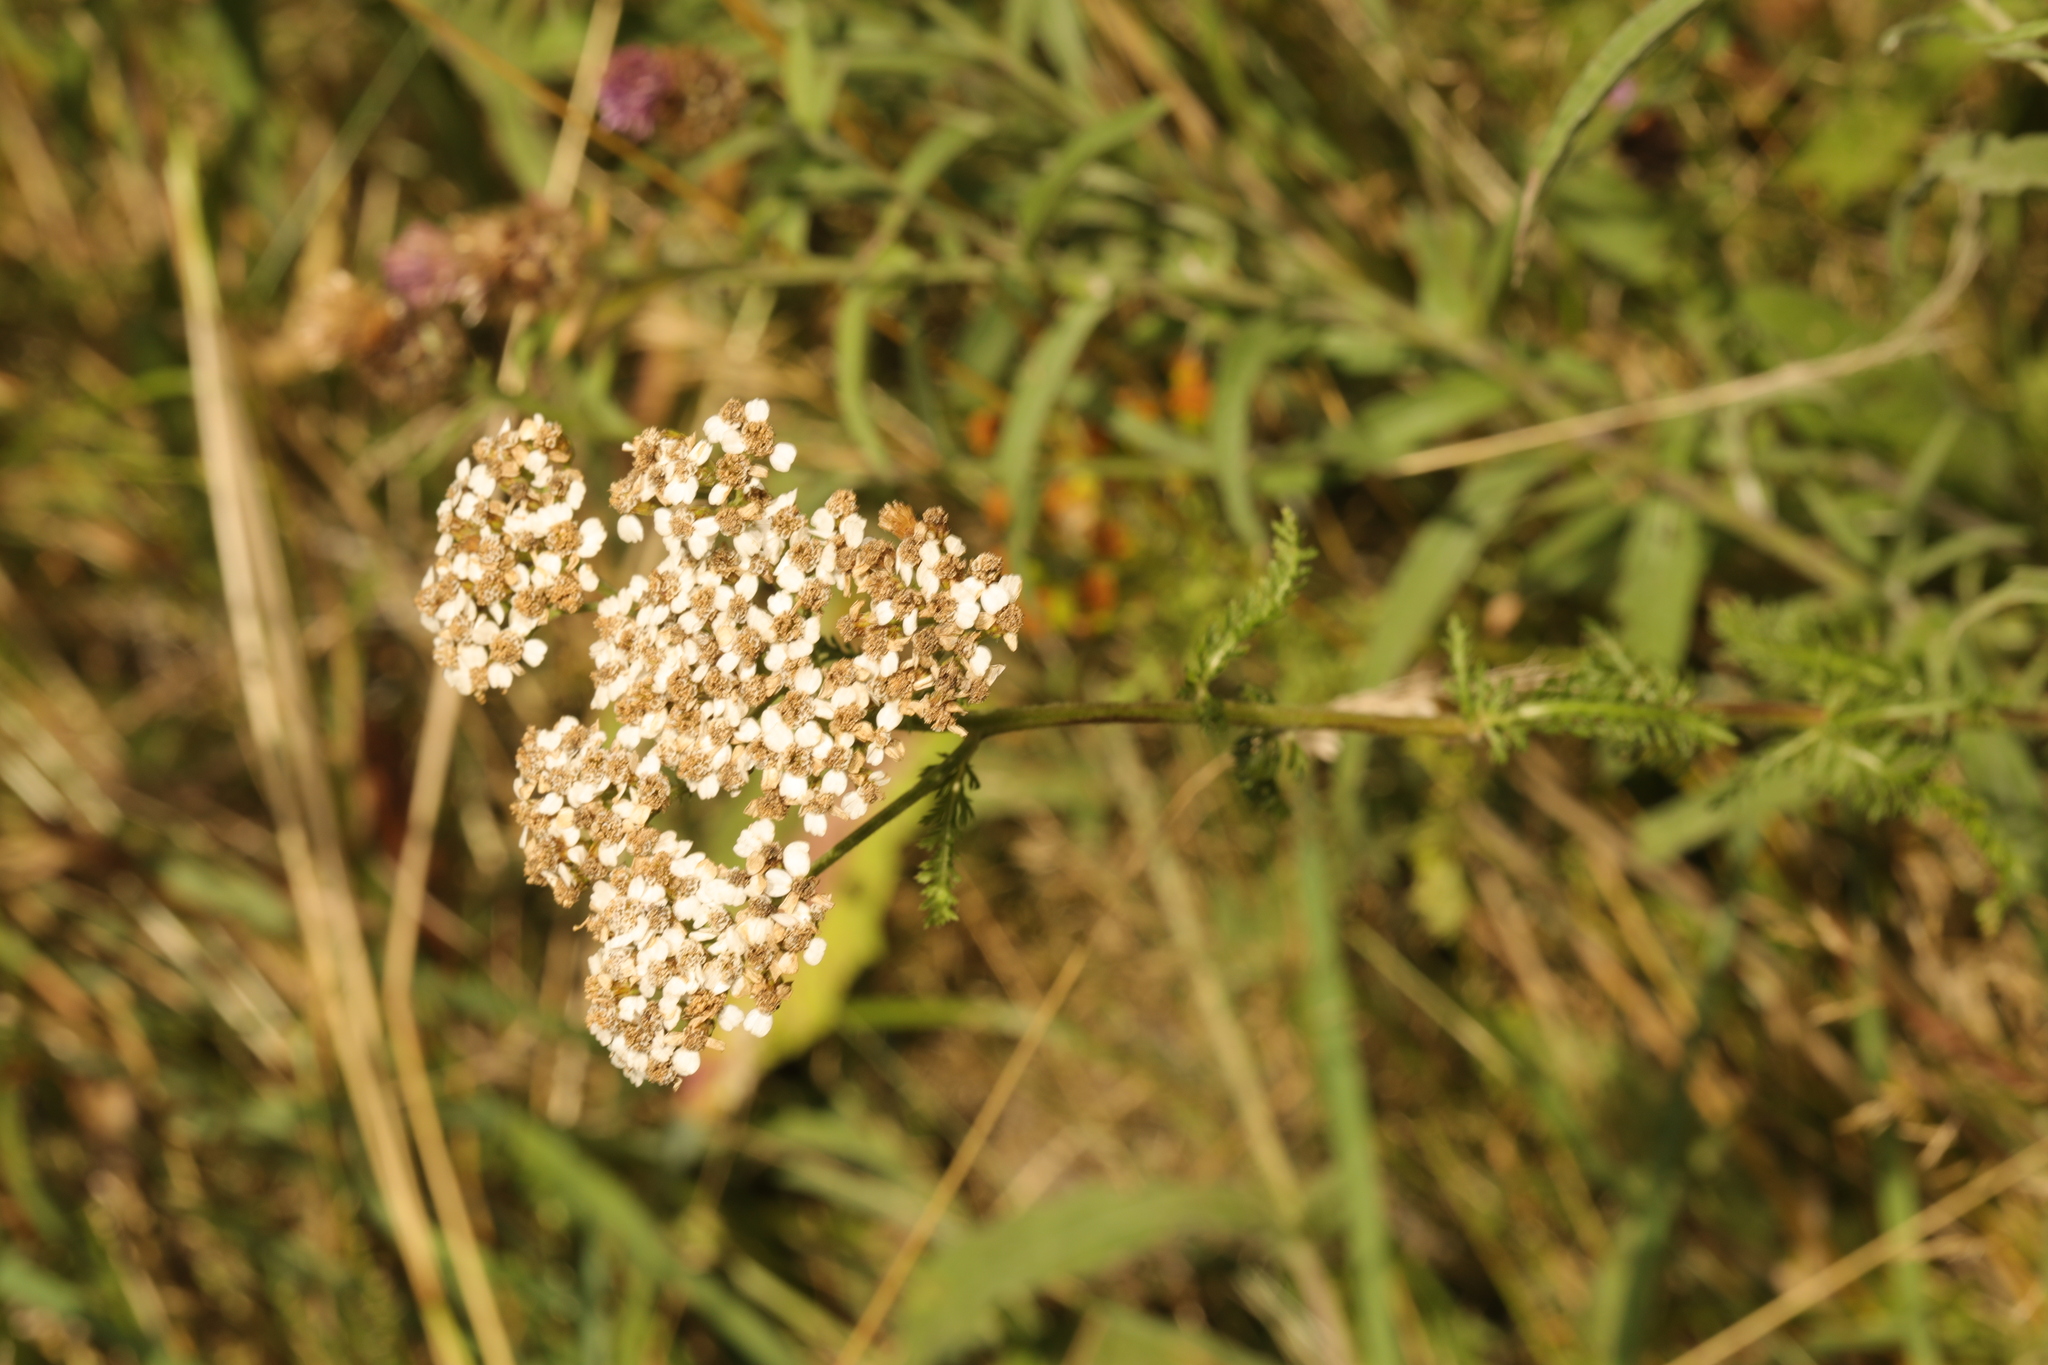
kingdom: Plantae
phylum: Tracheophyta
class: Magnoliopsida
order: Asterales
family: Asteraceae
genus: Achillea
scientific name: Achillea millefolium
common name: Yarrow
